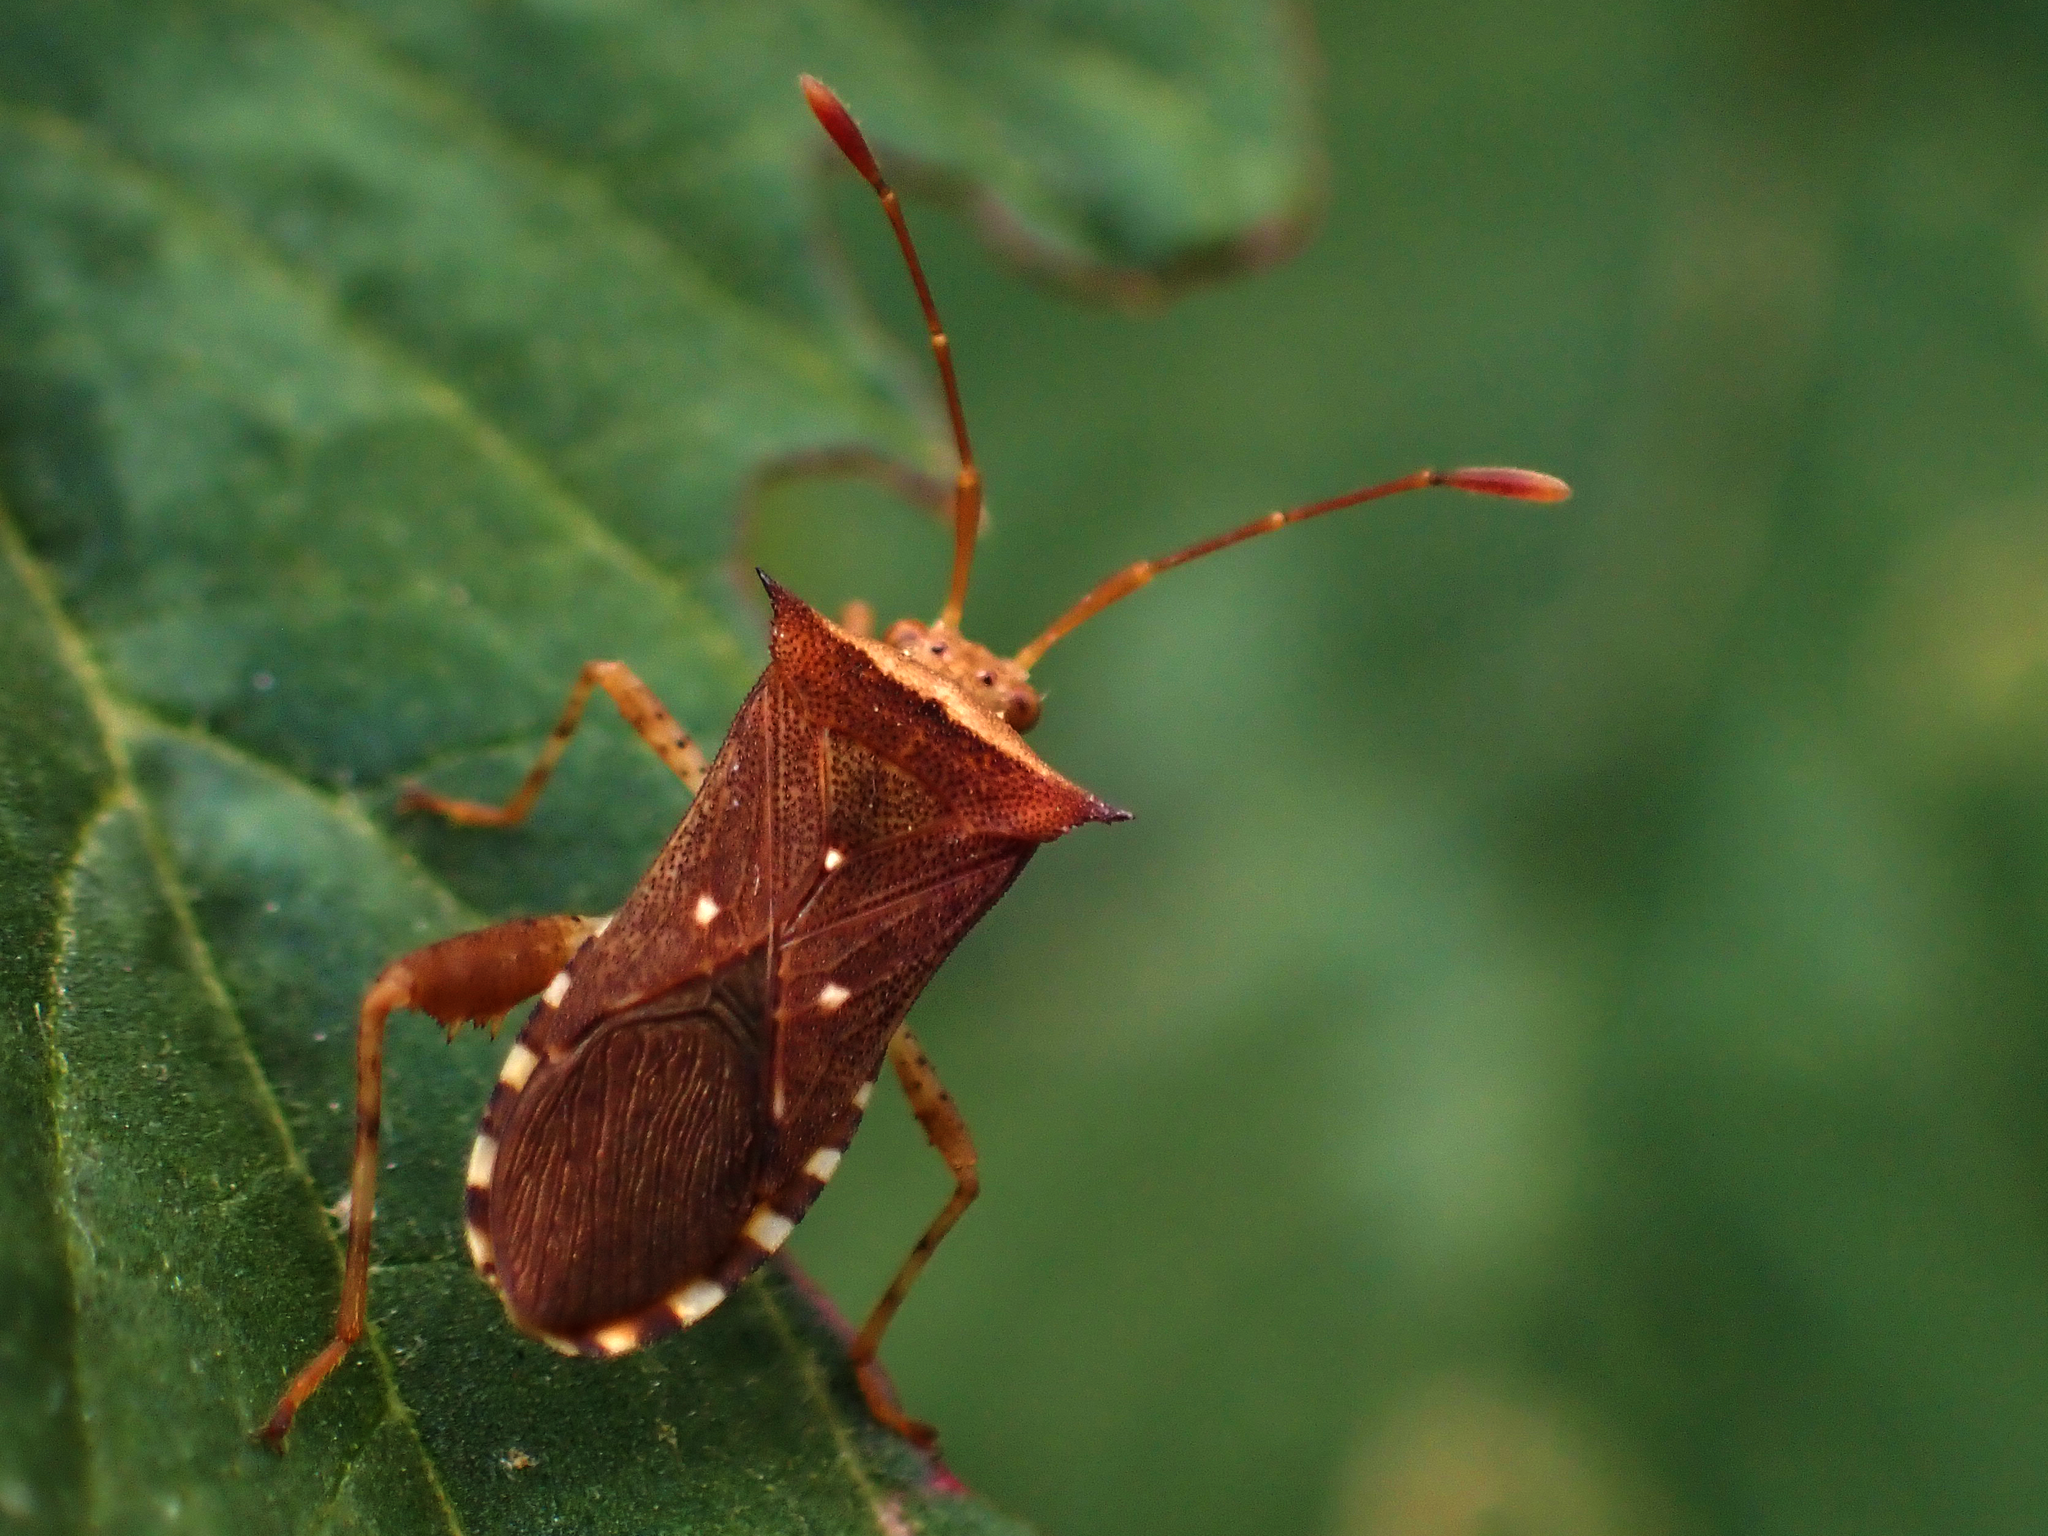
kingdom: Animalia
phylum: Arthropoda
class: Insecta
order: Hemiptera
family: Coreidae
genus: Zicca
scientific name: Zicca taeniola
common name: Leaf-footed bug
